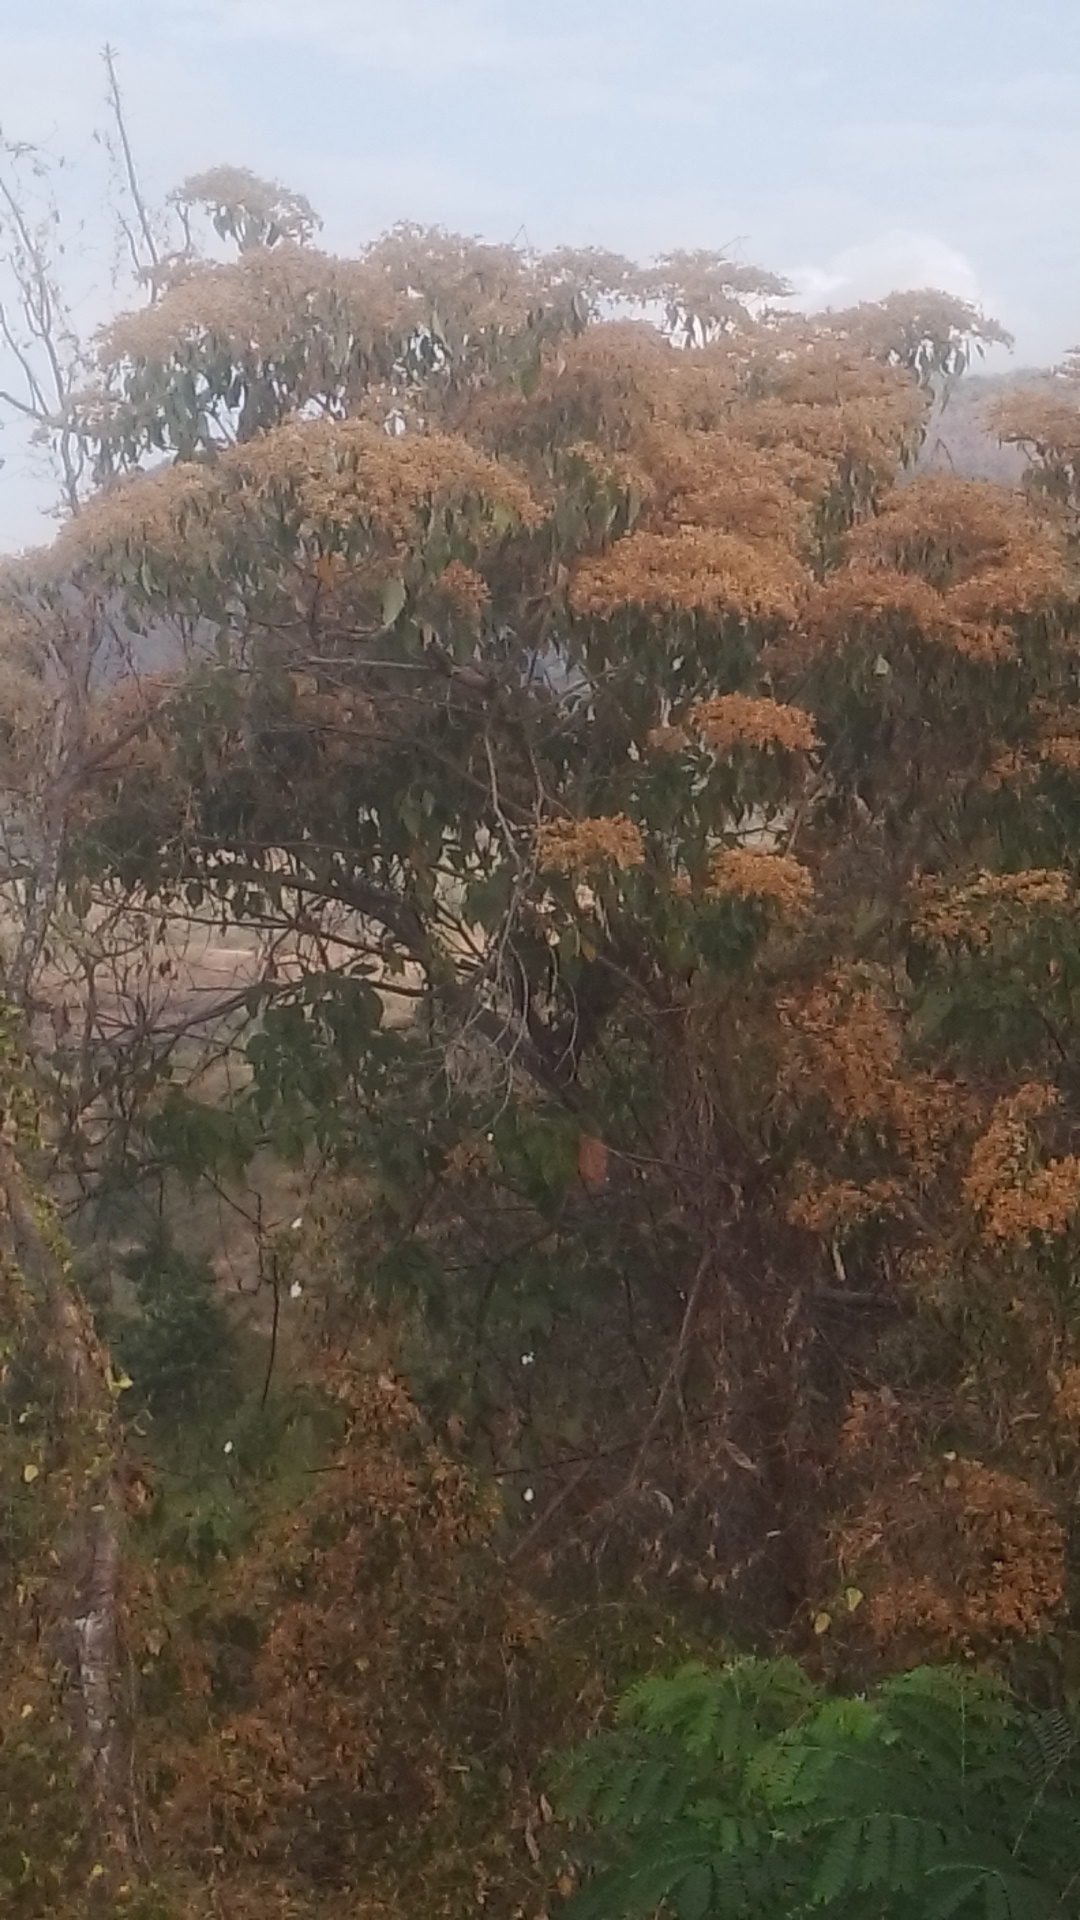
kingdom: Plantae
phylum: Tracheophyta
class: Magnoliopsida
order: Boraginales
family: Cordiaceae
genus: Cordia
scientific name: Cordia elaeagnoides
